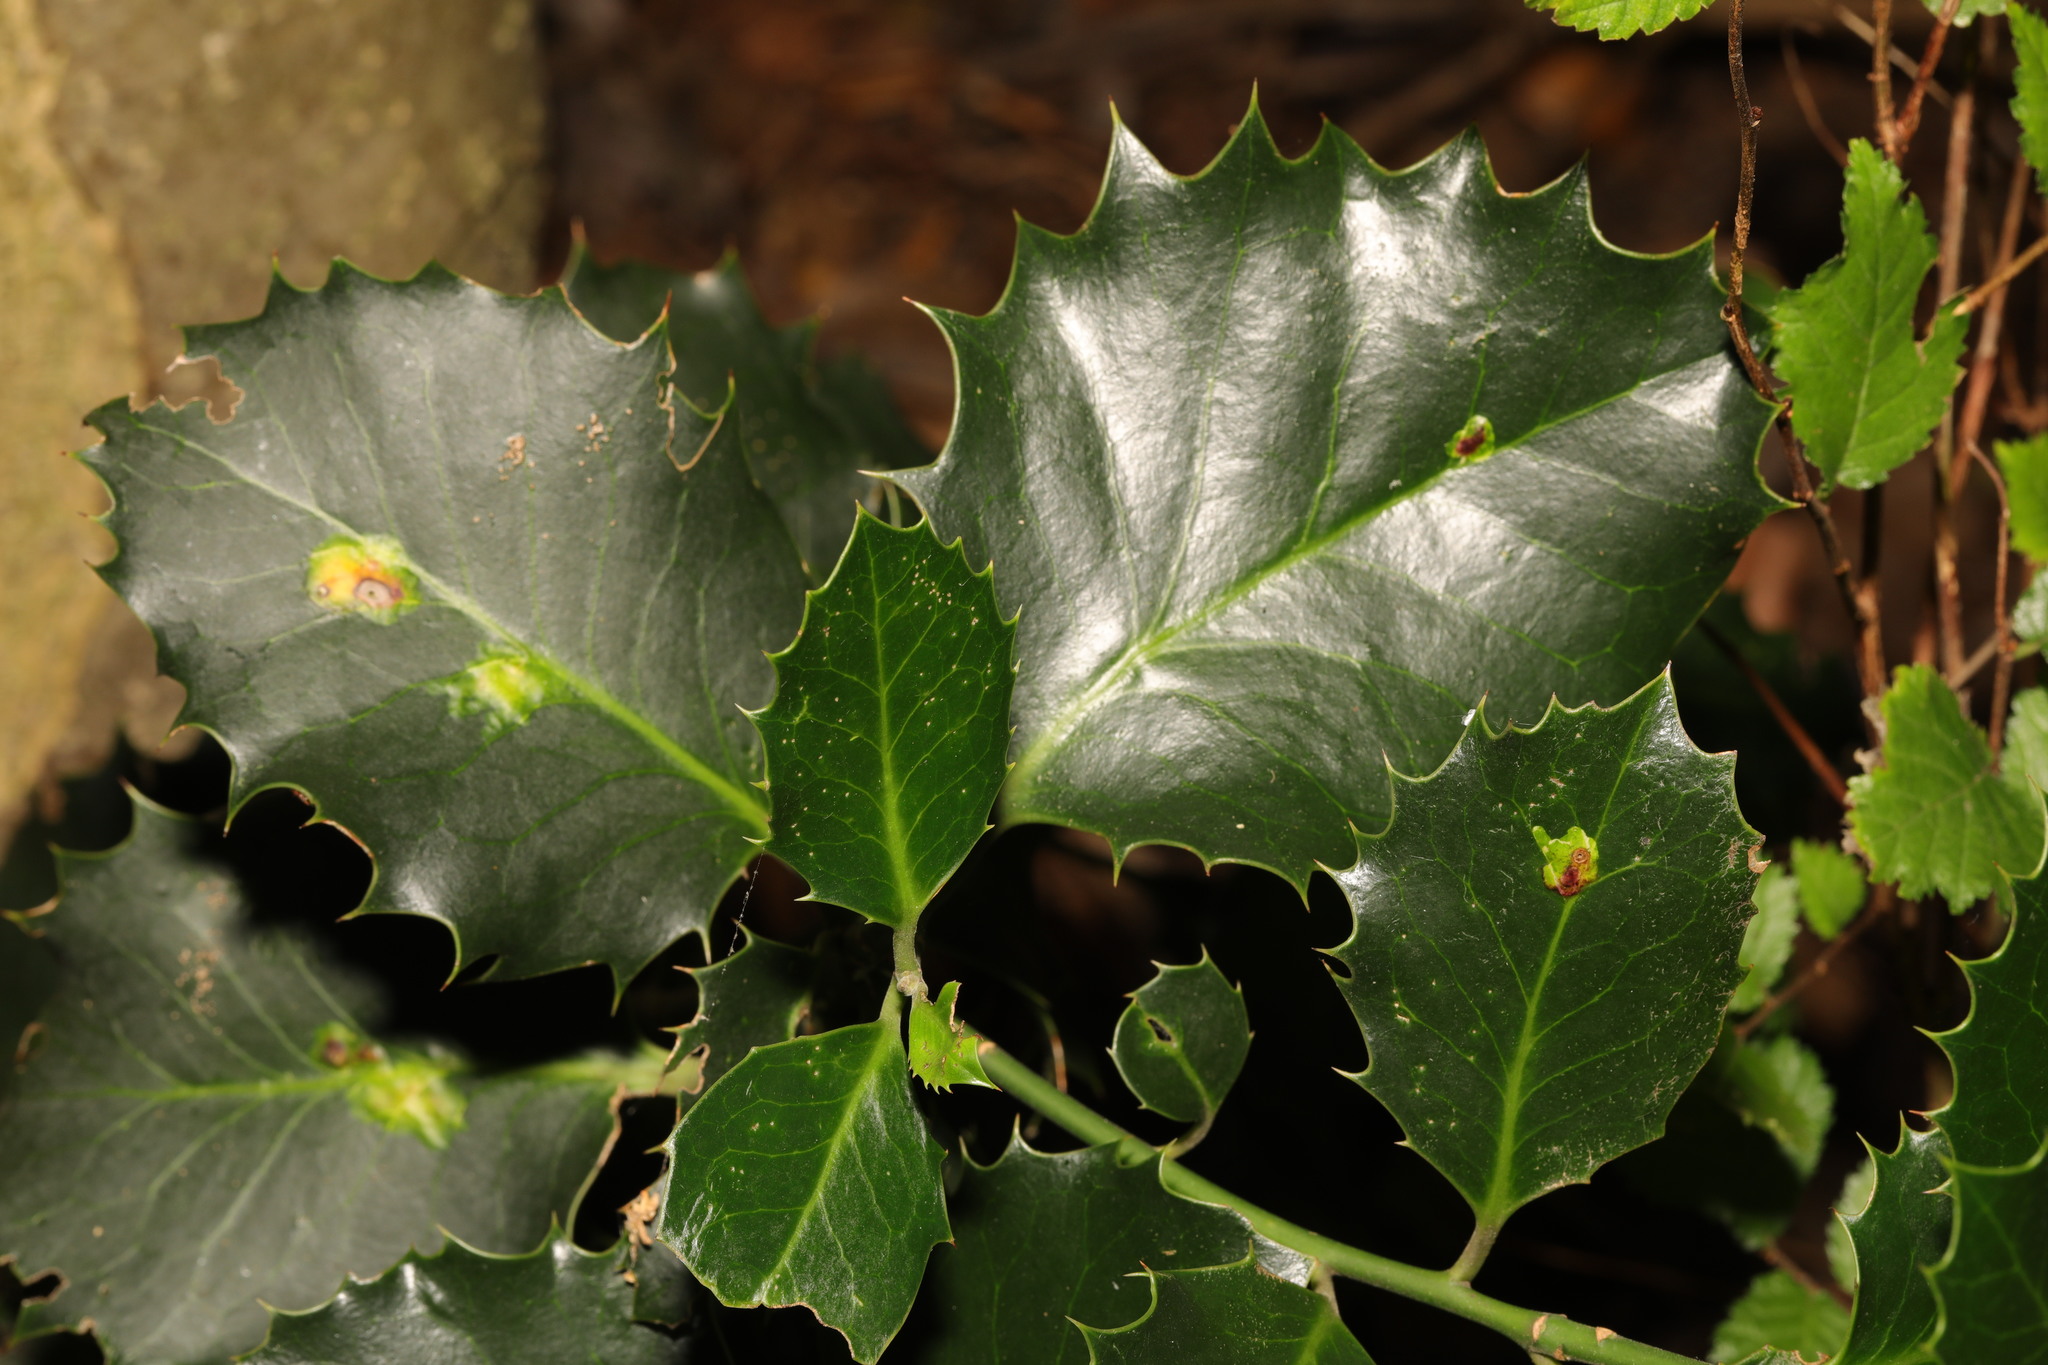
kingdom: Plantae
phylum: Tracheophyta
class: Magnoliopsida
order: Aquifoliales
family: Aquifoliaceae
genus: Ilex
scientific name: Ilex aquifolium
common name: English holly
